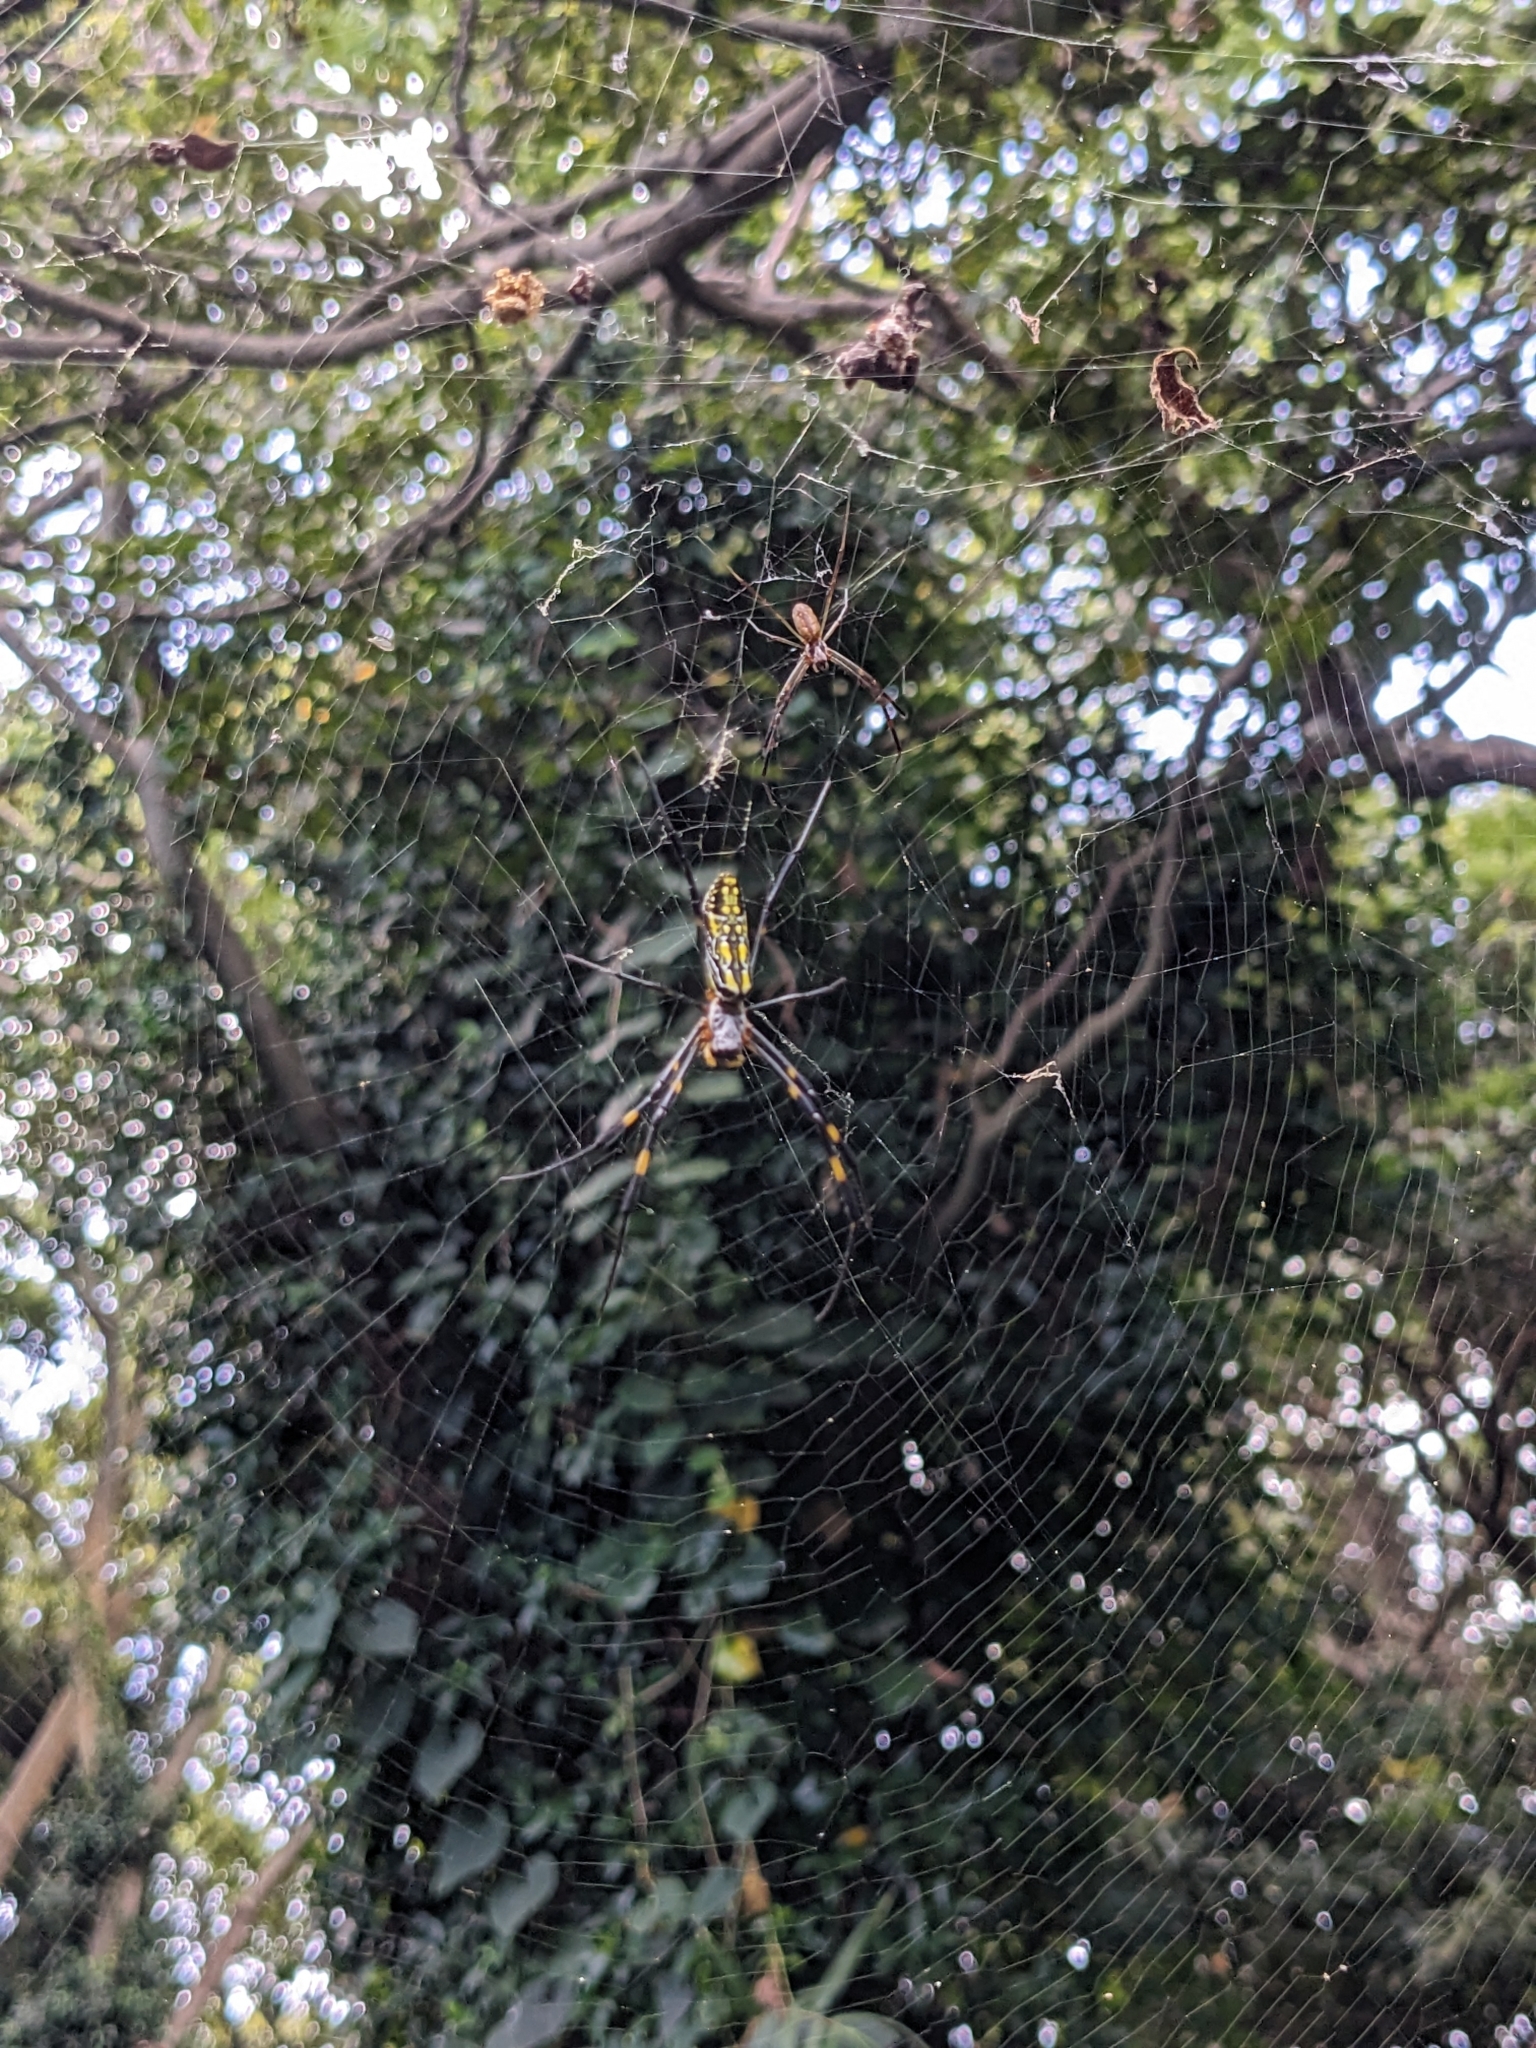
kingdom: Animalia
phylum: Arthropoda
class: Arachnida
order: Araneae
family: Araneidae
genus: Trichonephila
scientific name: Trichonephila clavata
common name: Jorō spider
